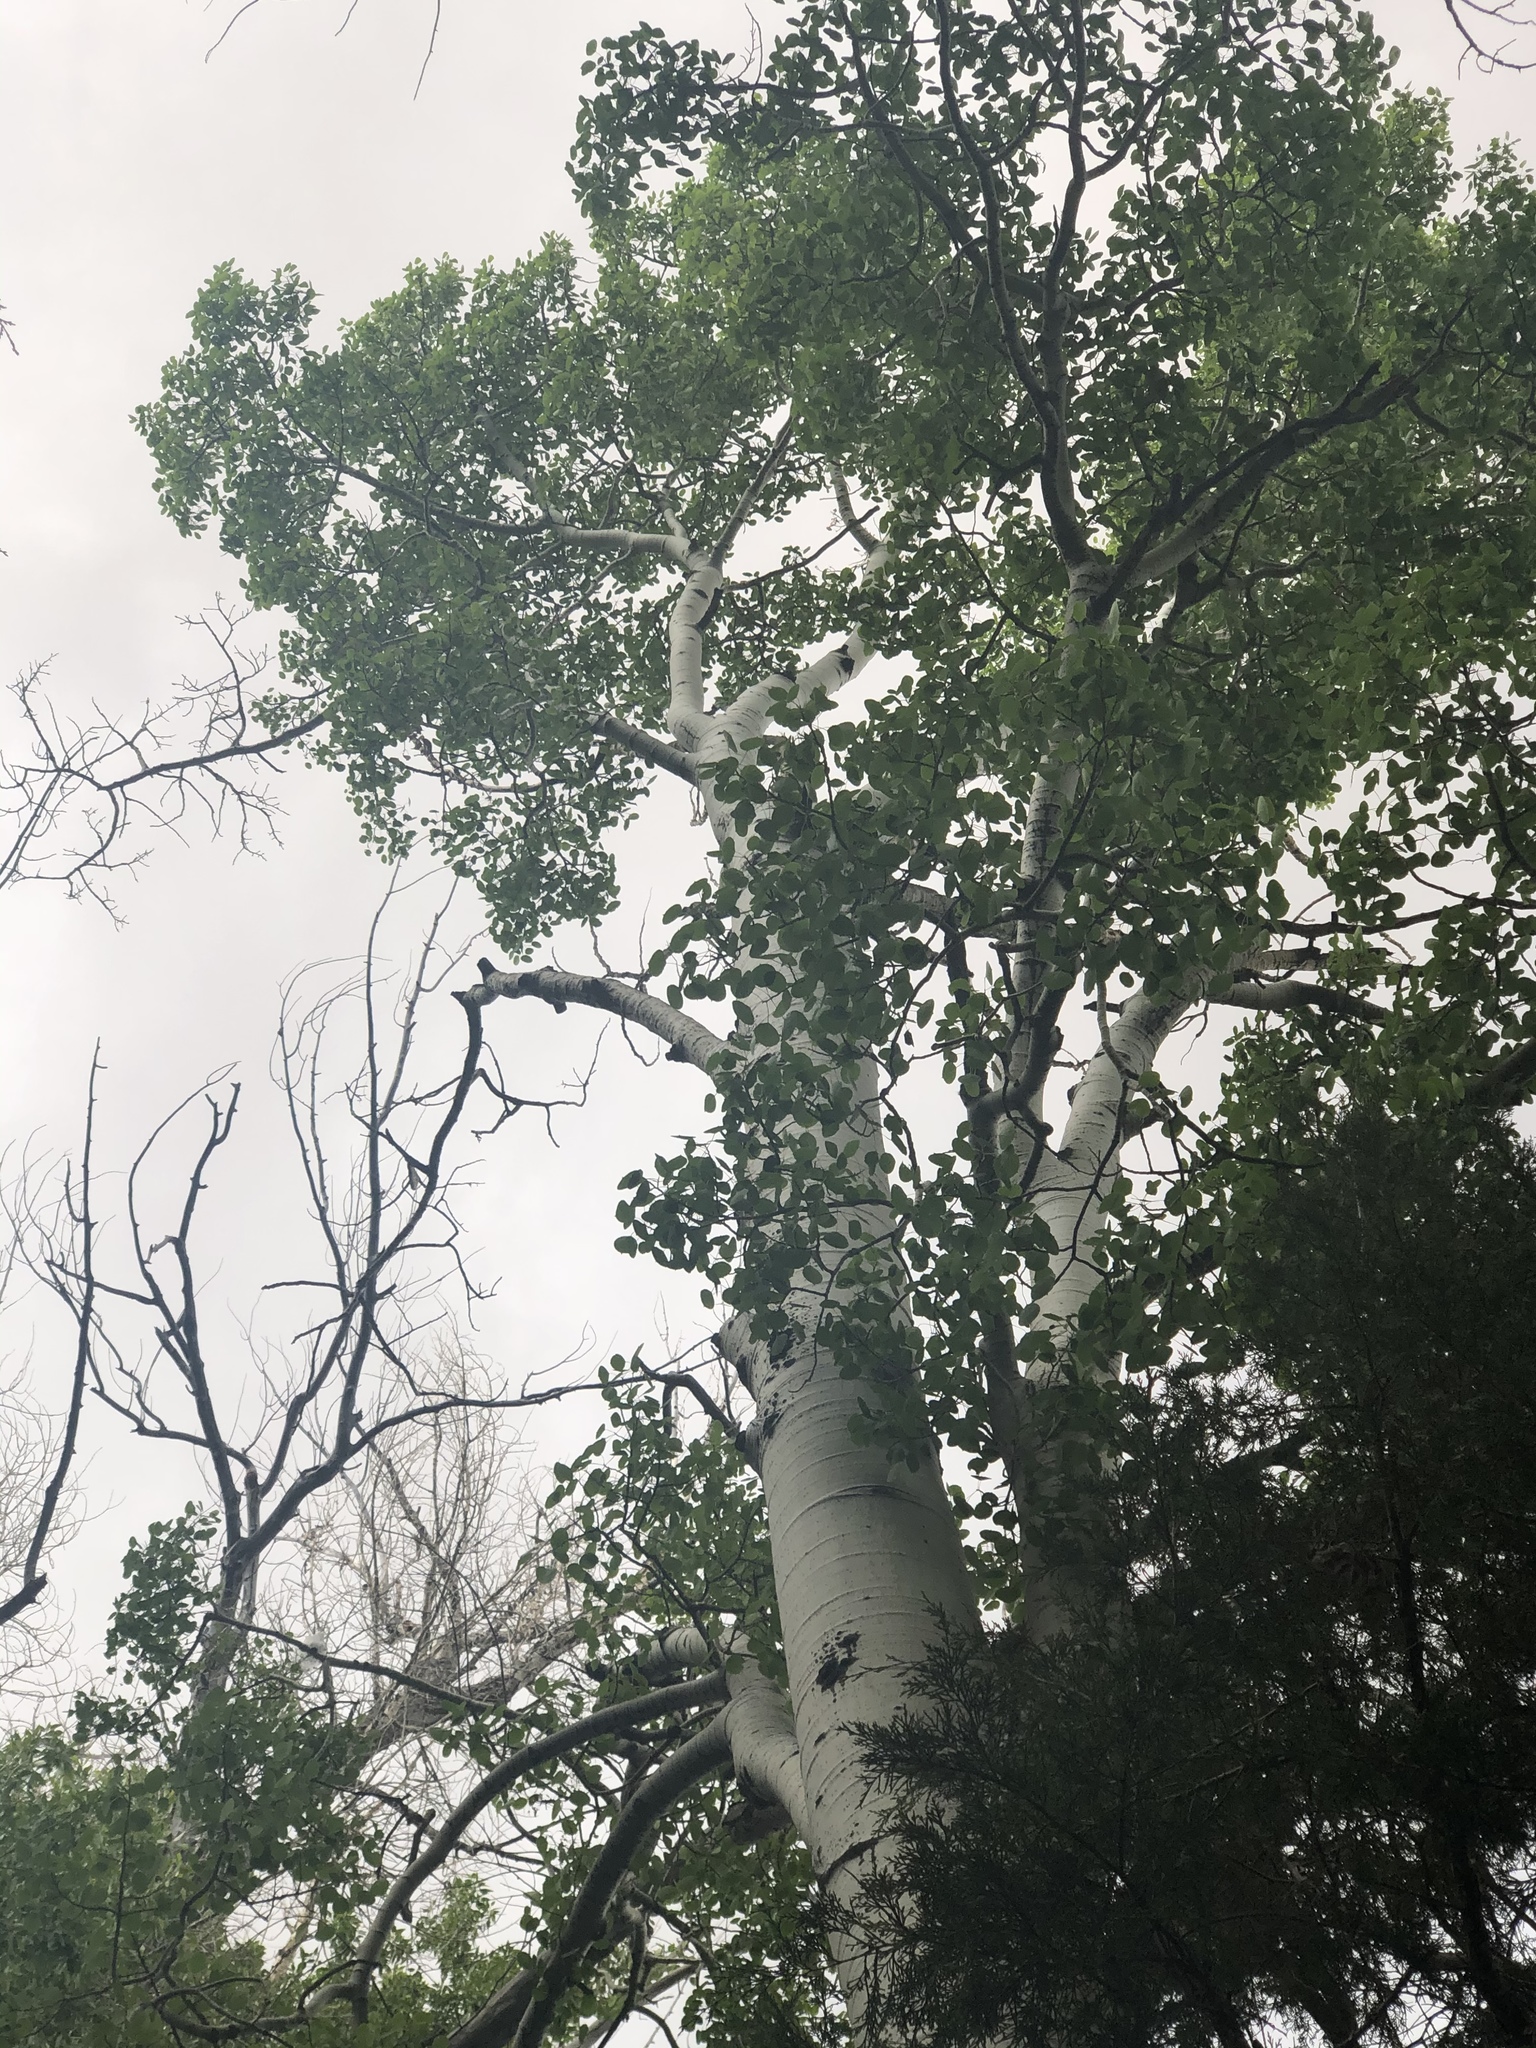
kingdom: Plantae
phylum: Tracheophyta
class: Magnoliopsida
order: Malpighiales
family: Salicaceae
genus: Populus
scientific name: Populus tremuloides
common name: Quaking aspen
